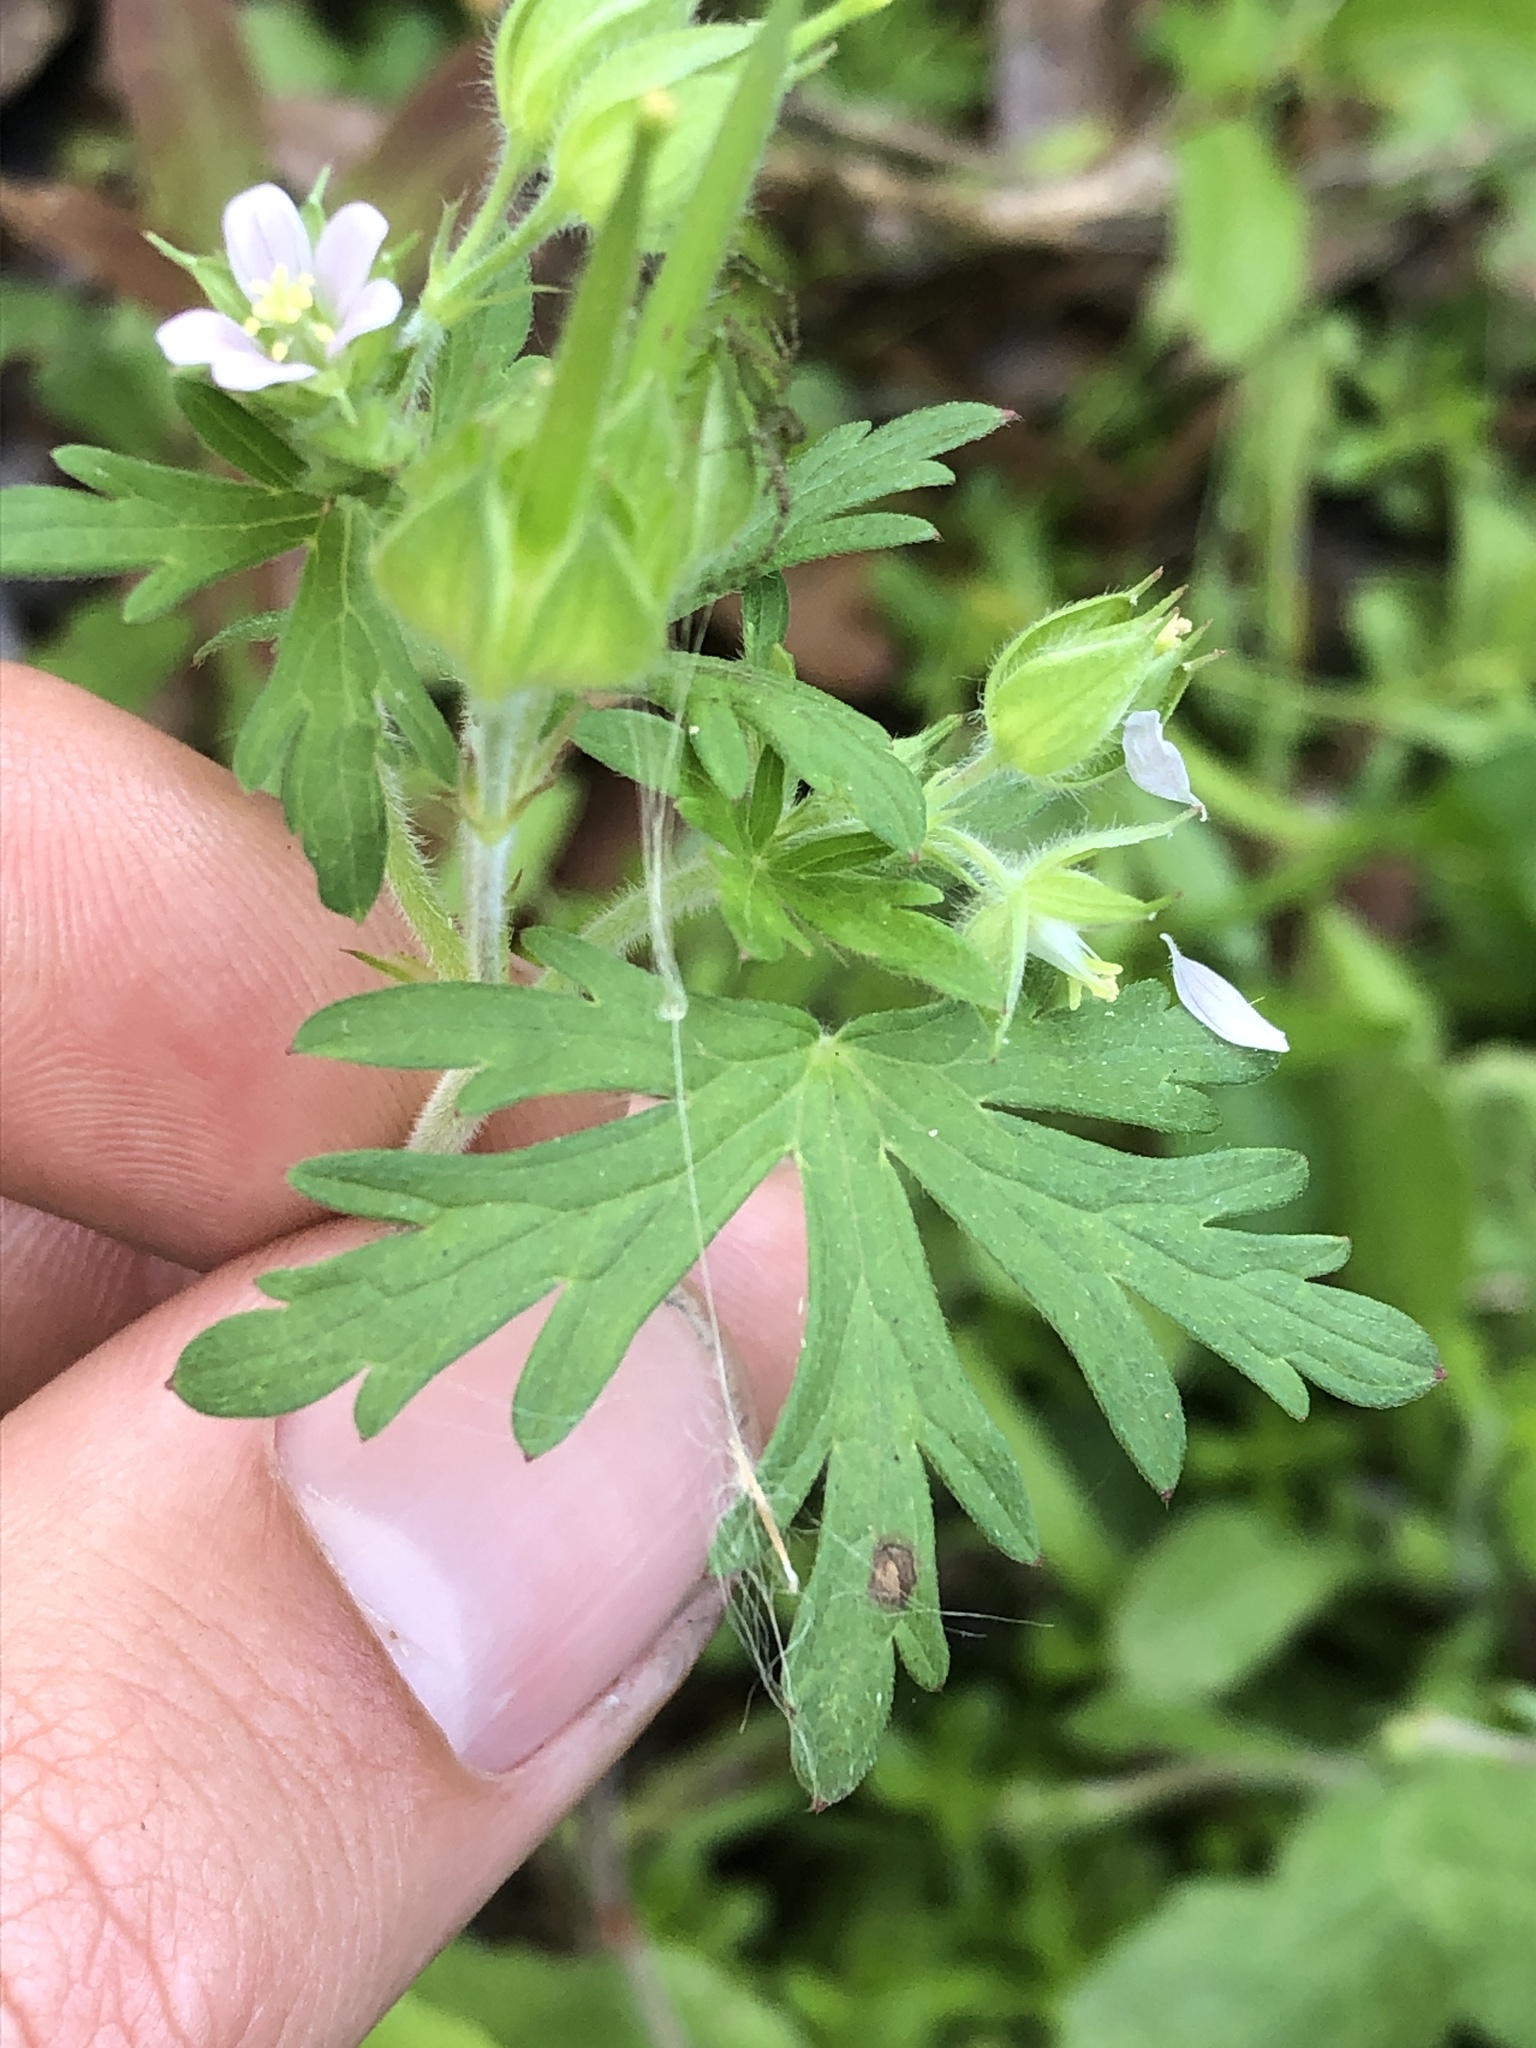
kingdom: Plantae
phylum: Tracheophyta
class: Magnoliopsida
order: Geraniales
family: Geraniaceae
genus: Geranium
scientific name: Geranium carolinianum
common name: Carolina crane's-bill
